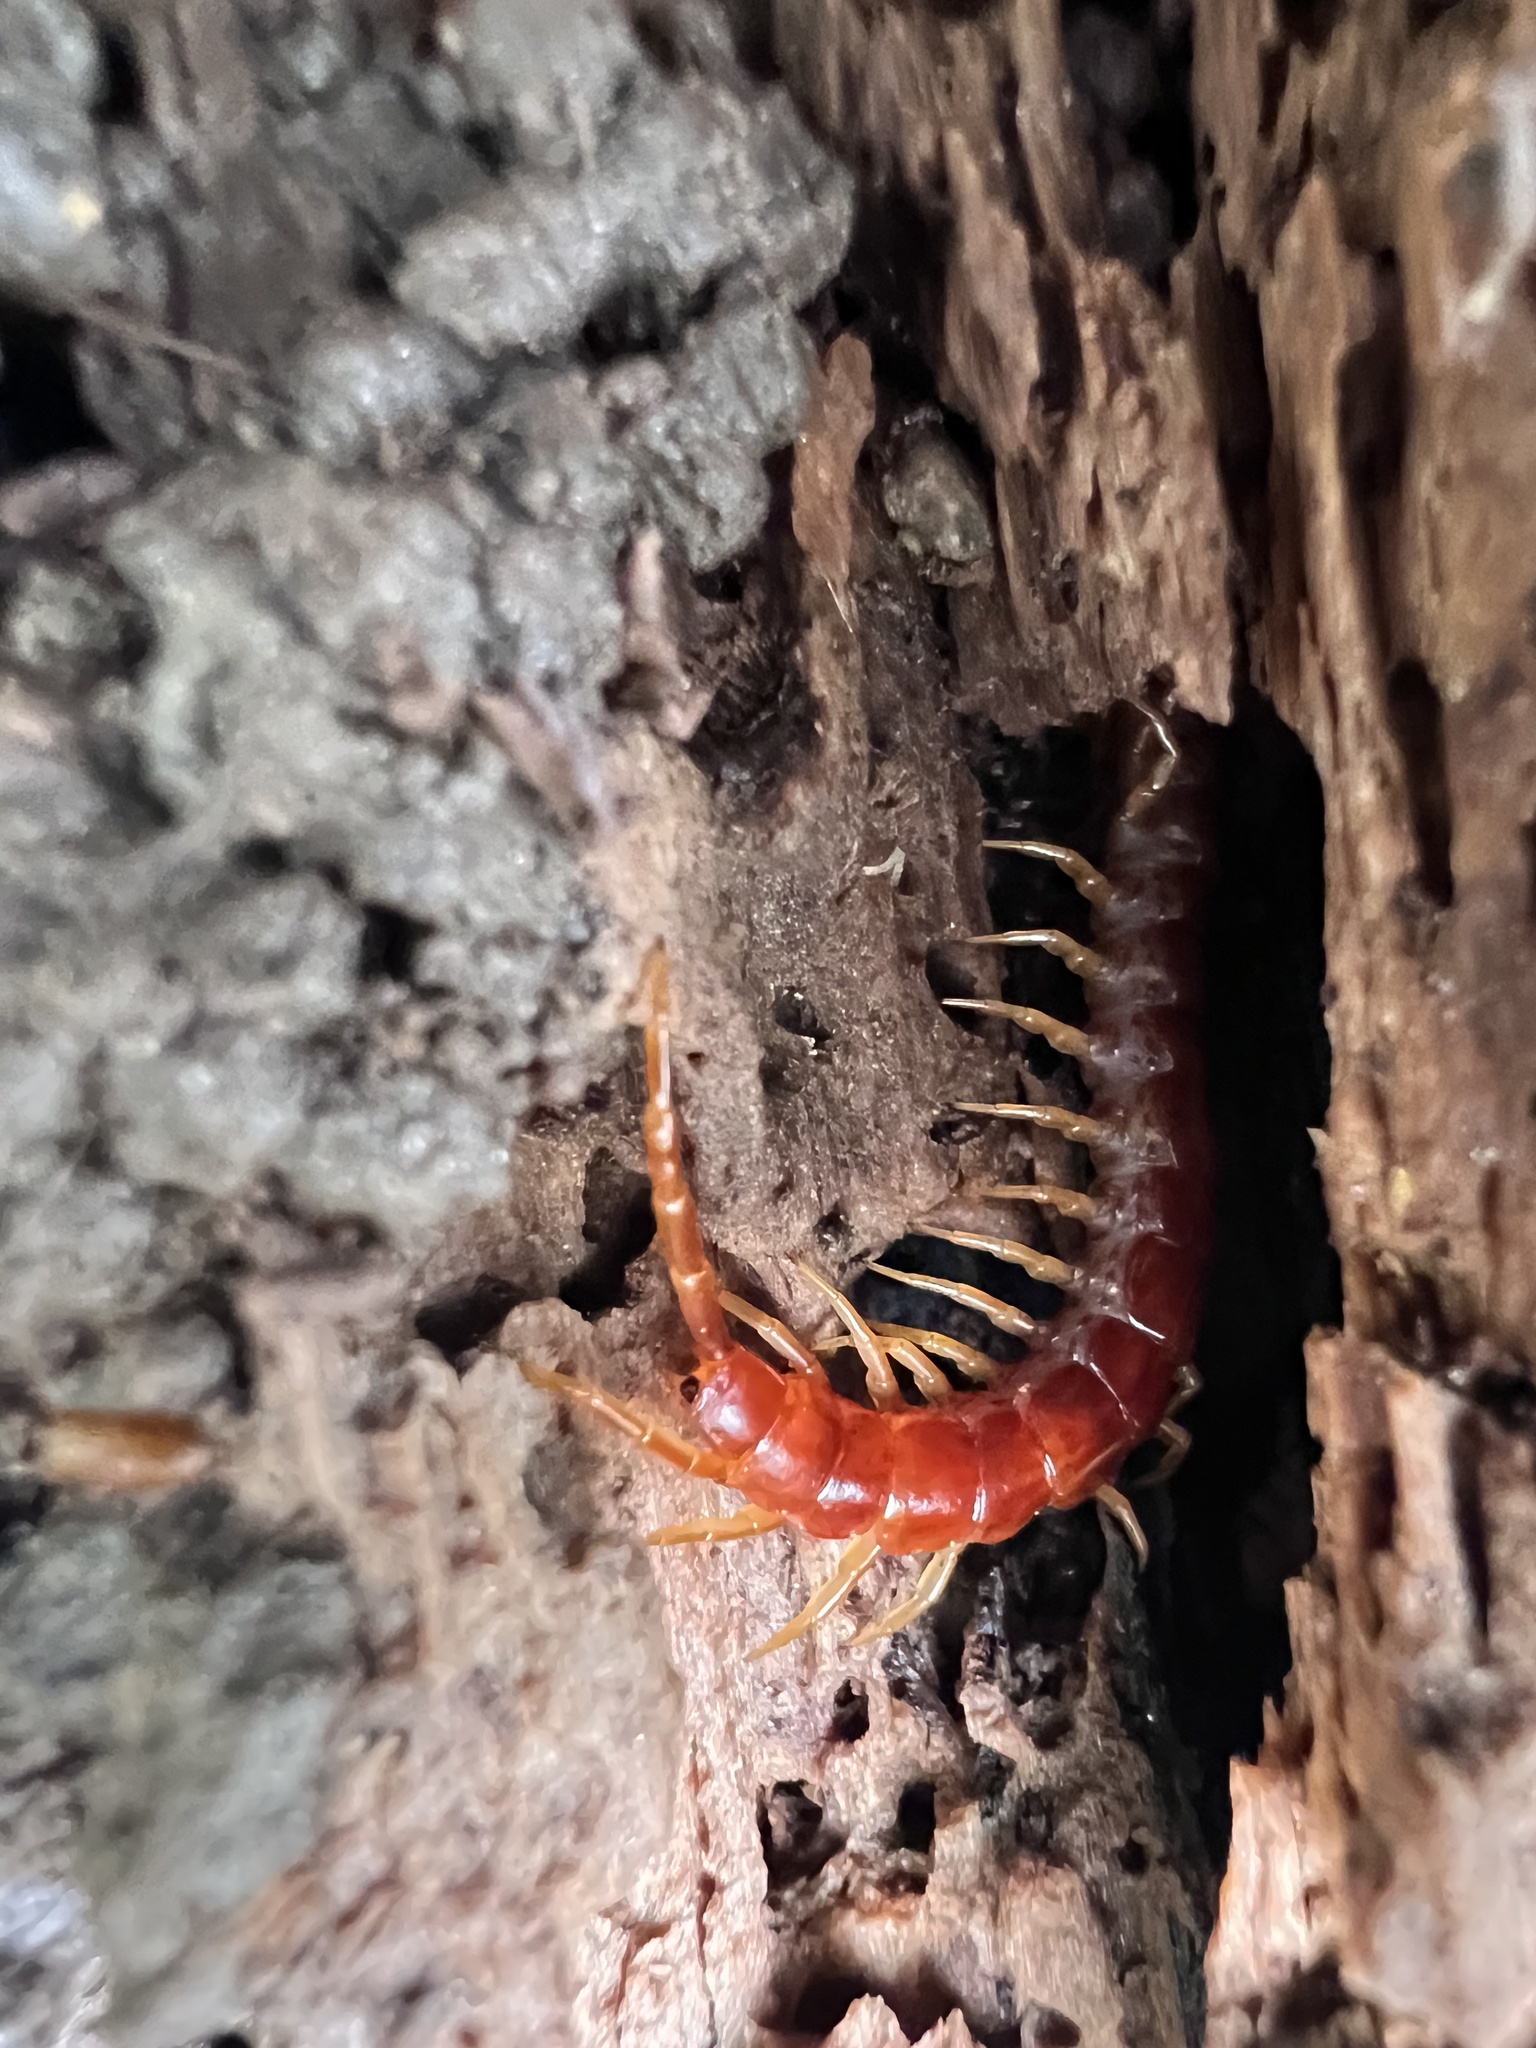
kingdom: Animalia
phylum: Arthropoda
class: Chilopoda
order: Scolopendromorpha
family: Scolopocryptopidae
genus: Scolopocryptops
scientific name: Scolopocryptops sexspinosus
